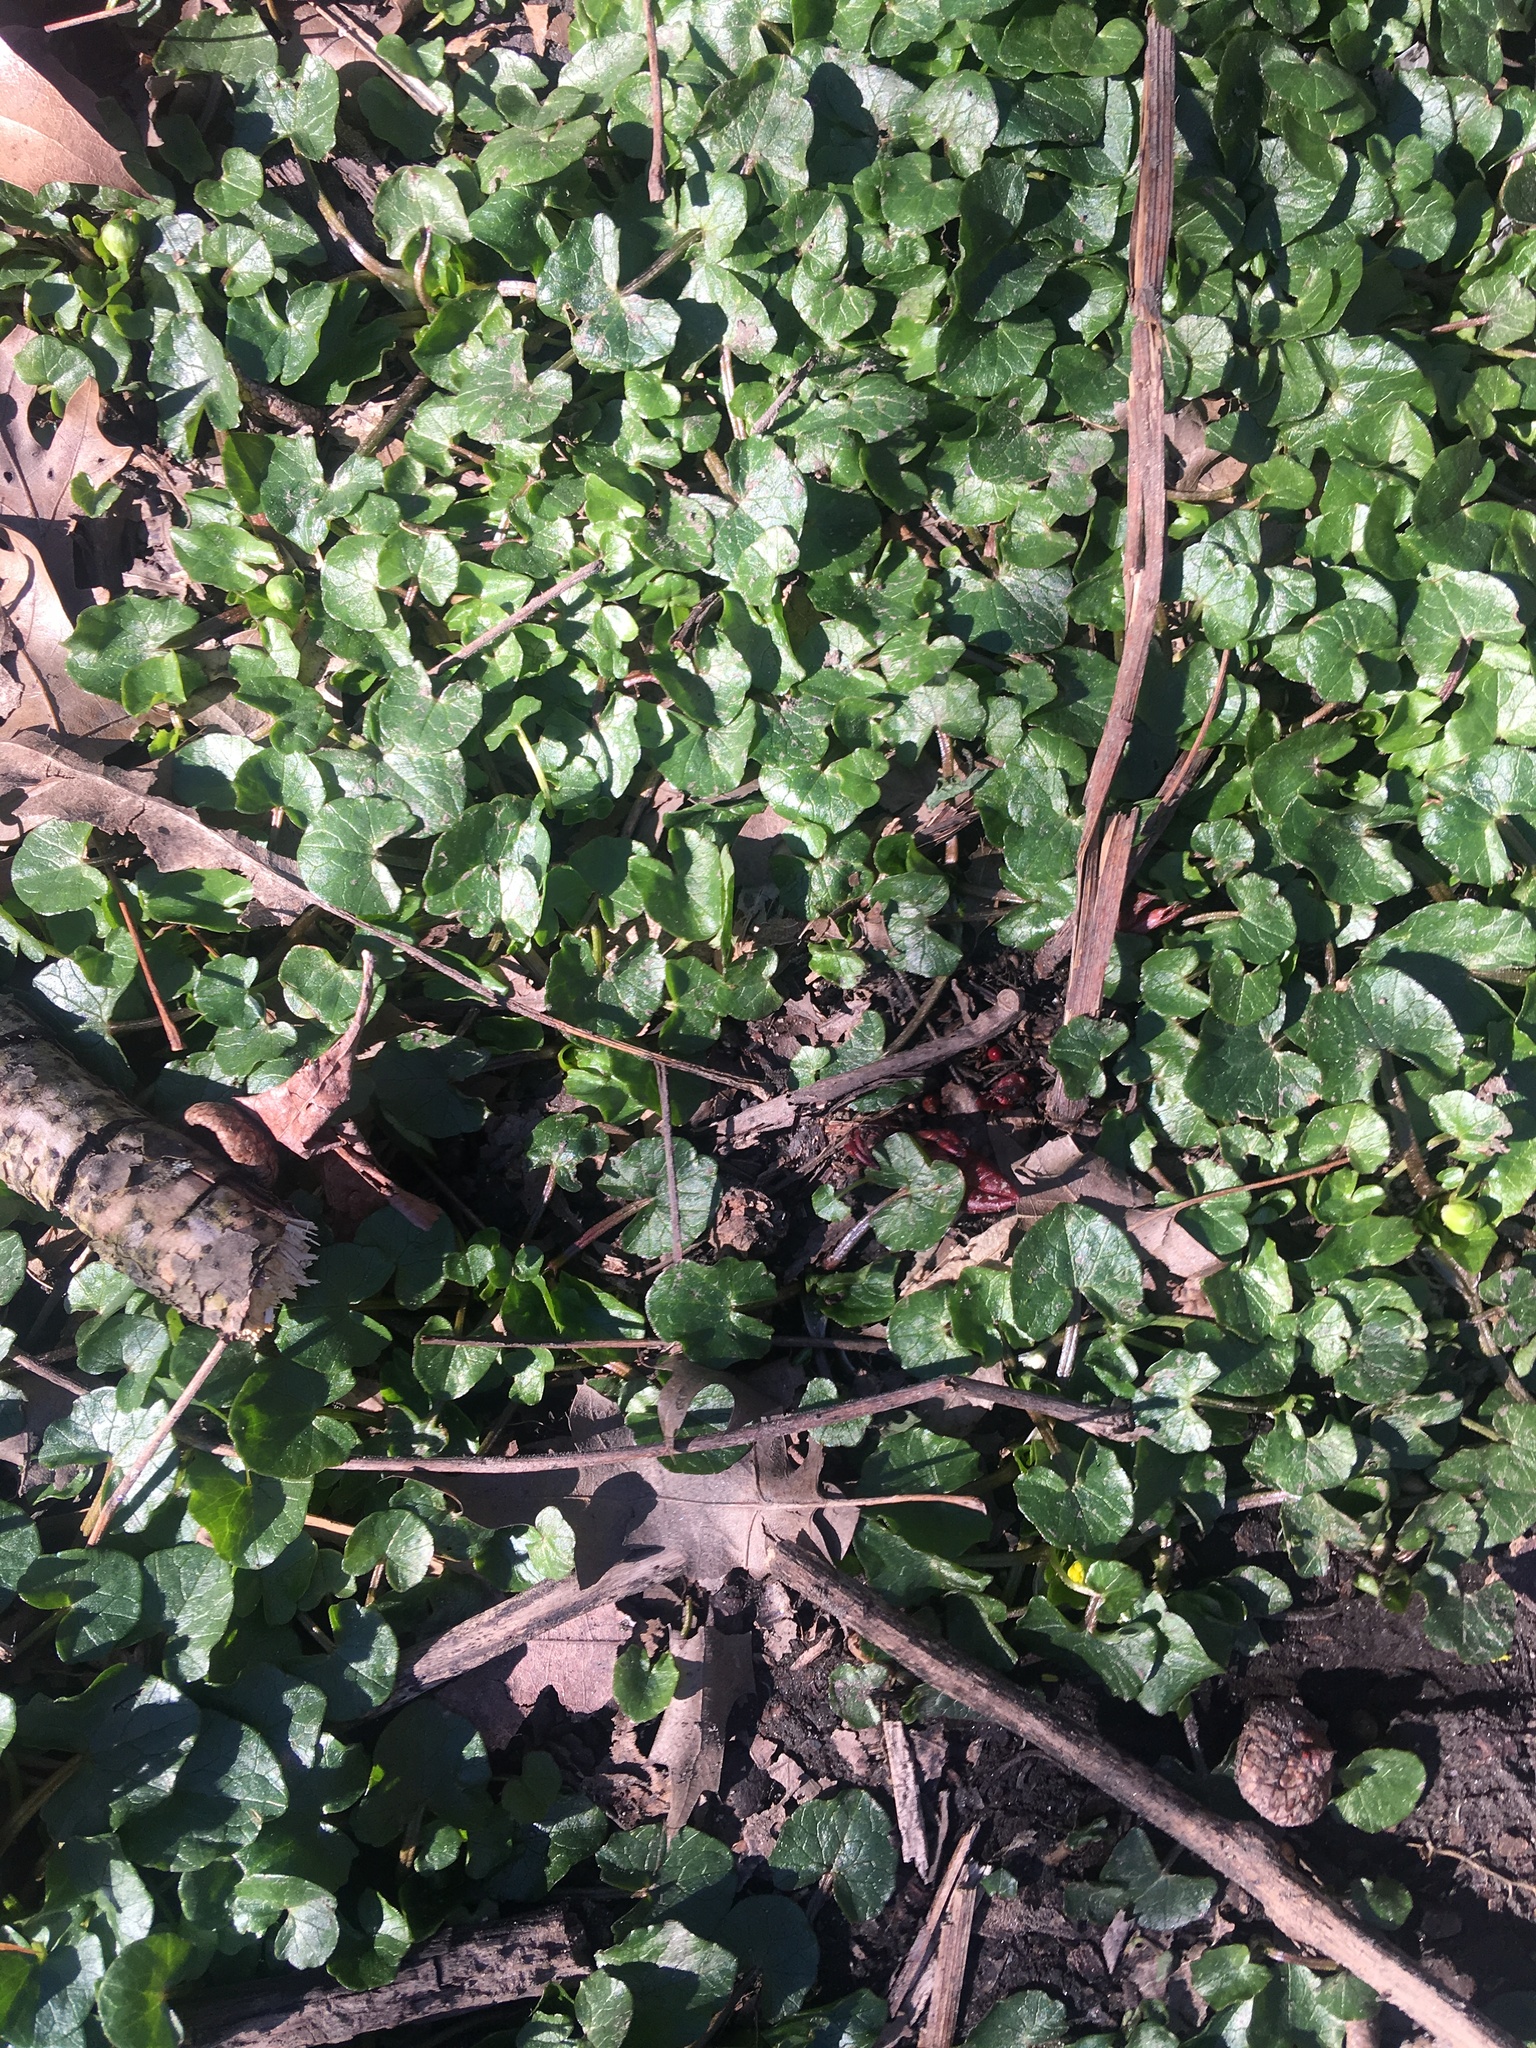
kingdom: Plantae
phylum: Tracheophyta
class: Magnoliopsida
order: Ranunculales
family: Ranunculaceae
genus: Ficaria
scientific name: Ficaria verna
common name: Lesser celandine
